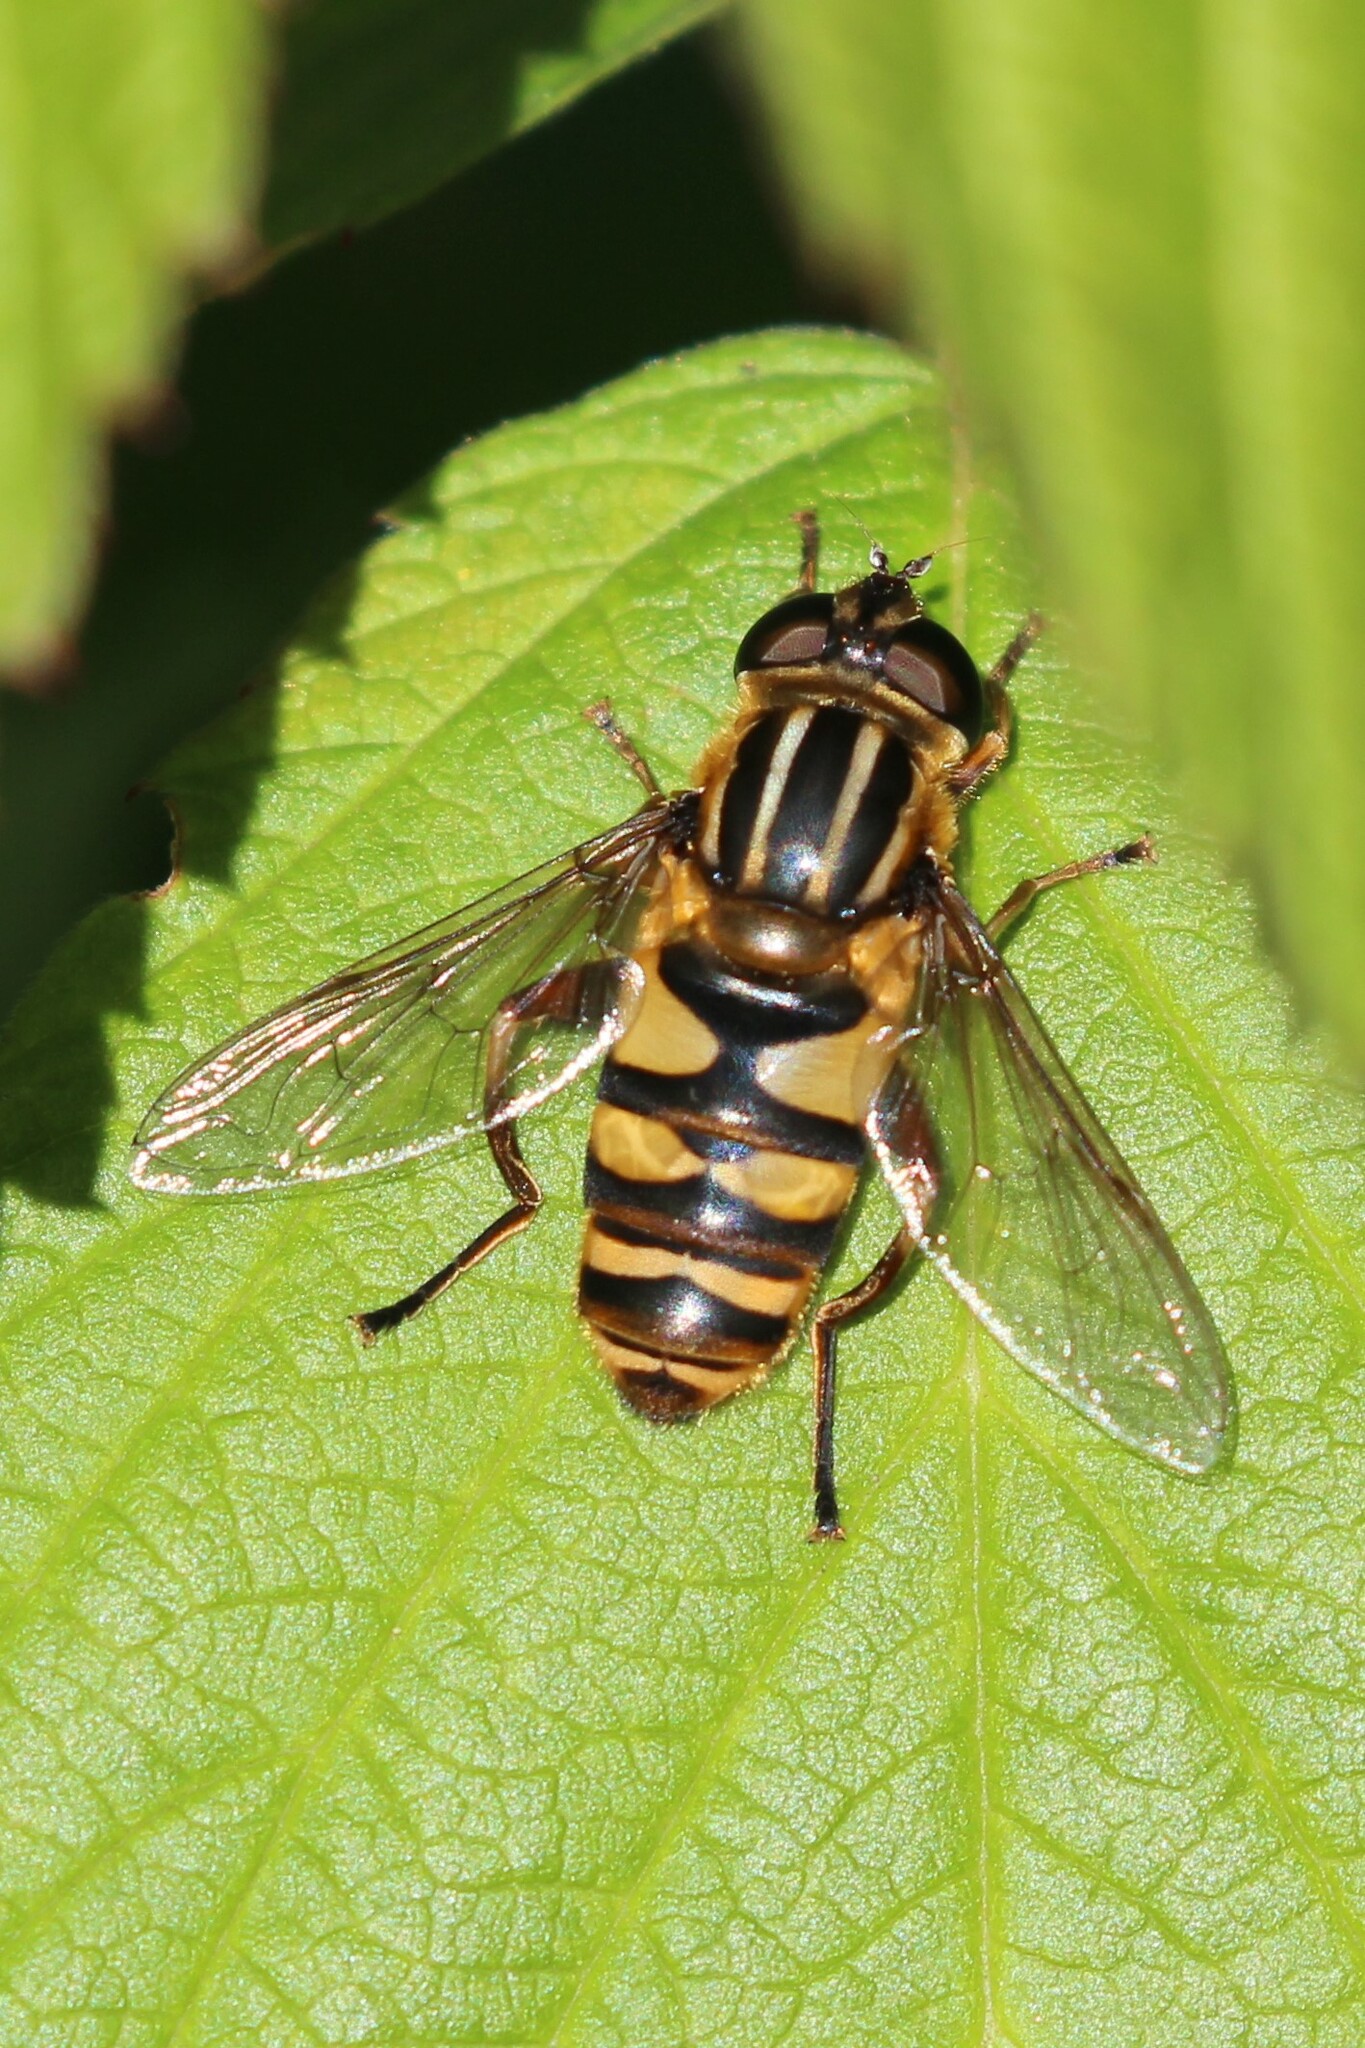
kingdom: Animalia
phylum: Arthropoda
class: Insecta
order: Diptera
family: Syrphidae
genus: Helophilus
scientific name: Helophilus fasciatus
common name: Narrow-headed marsh fly
